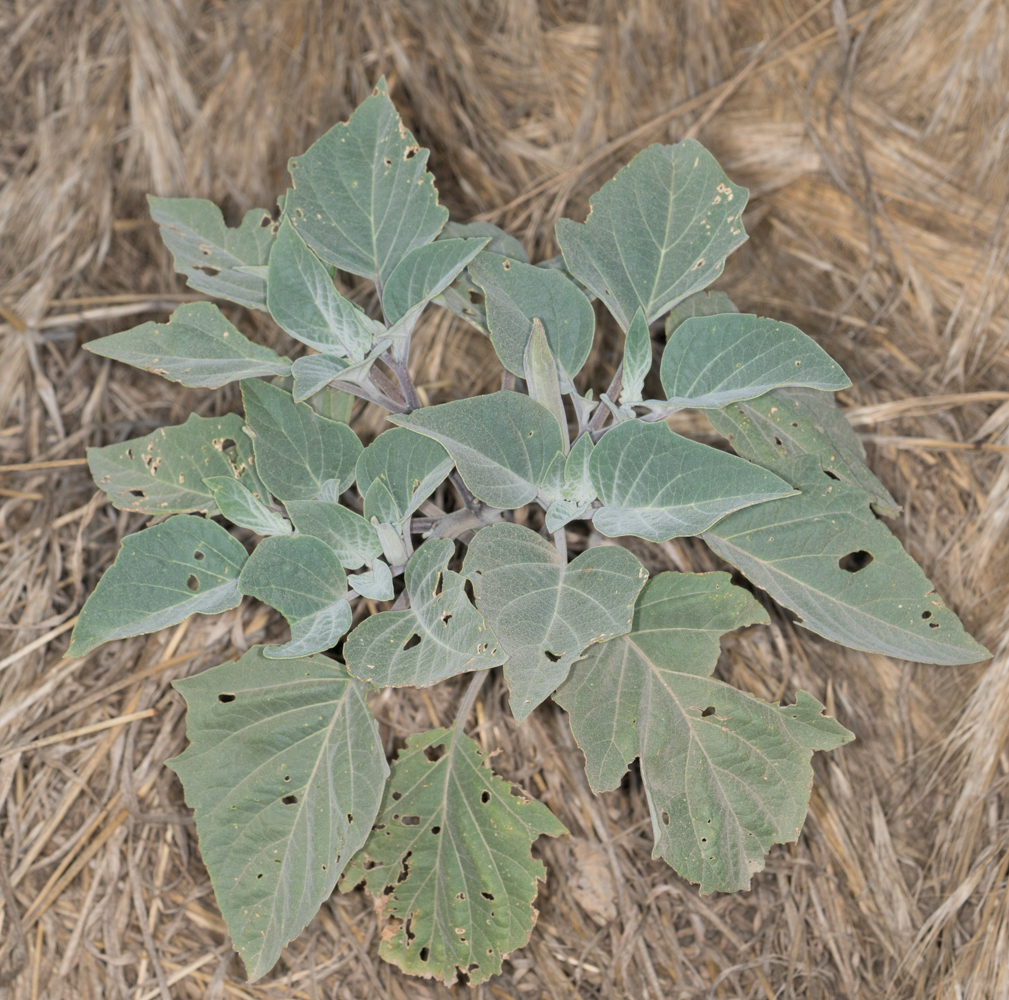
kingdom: Plantae
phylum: Tracheophyta
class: Magnoliopsida
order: Solanales
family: Solanaceae
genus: Datura
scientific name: Datura wrightii
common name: Sacred thorn-apple
